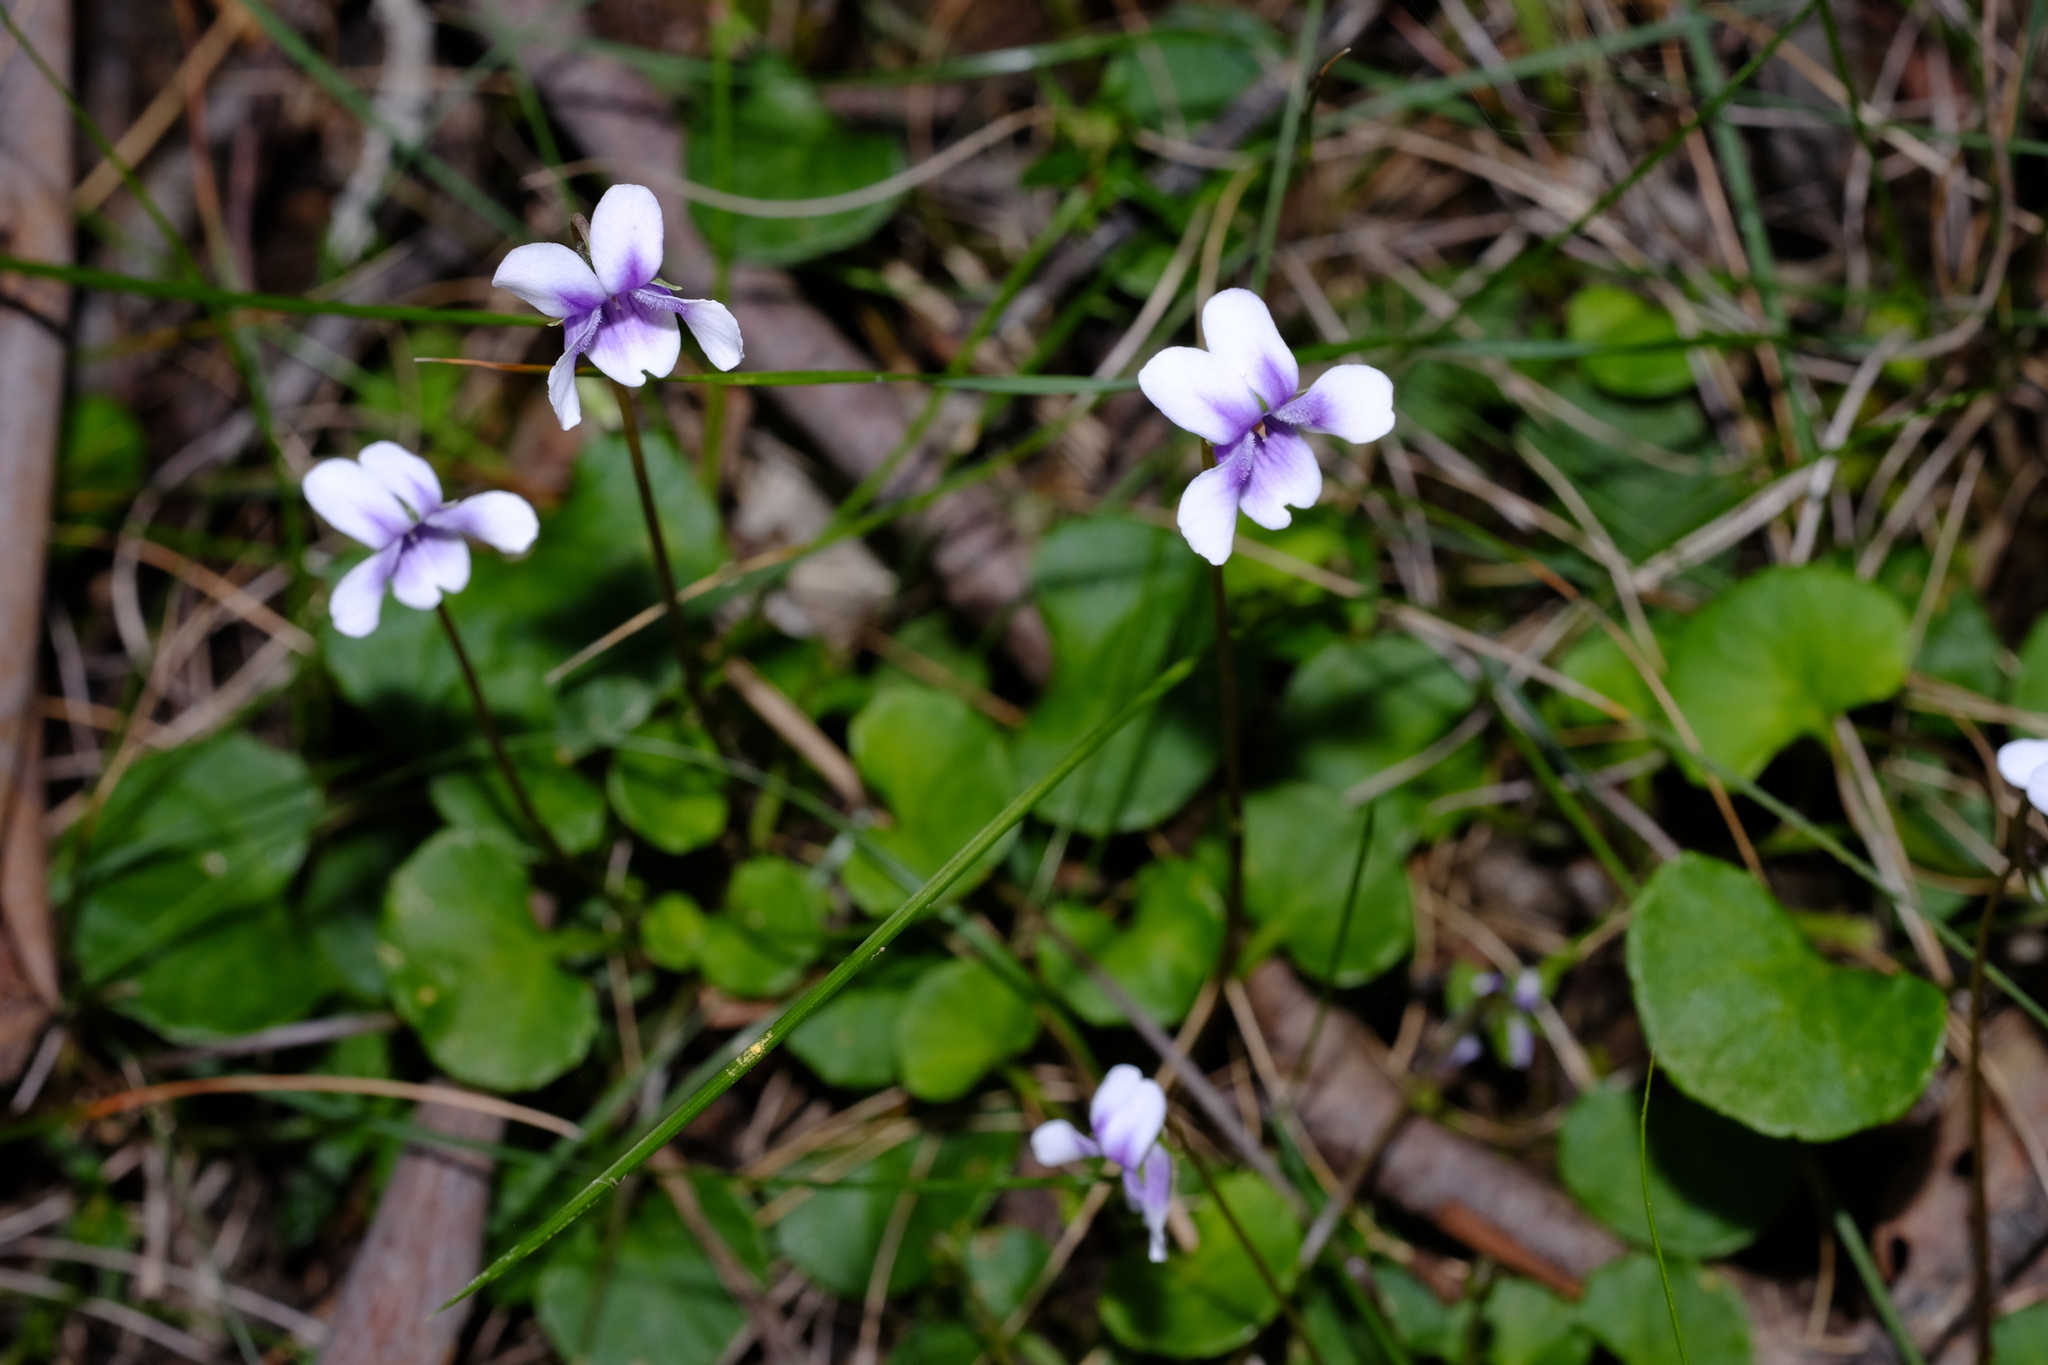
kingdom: Plantae
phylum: Tracheophyta
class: Magnoliopsida
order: Malpighiales
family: Violaceae
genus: Viola
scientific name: Viola hederacea
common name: Australian violet
